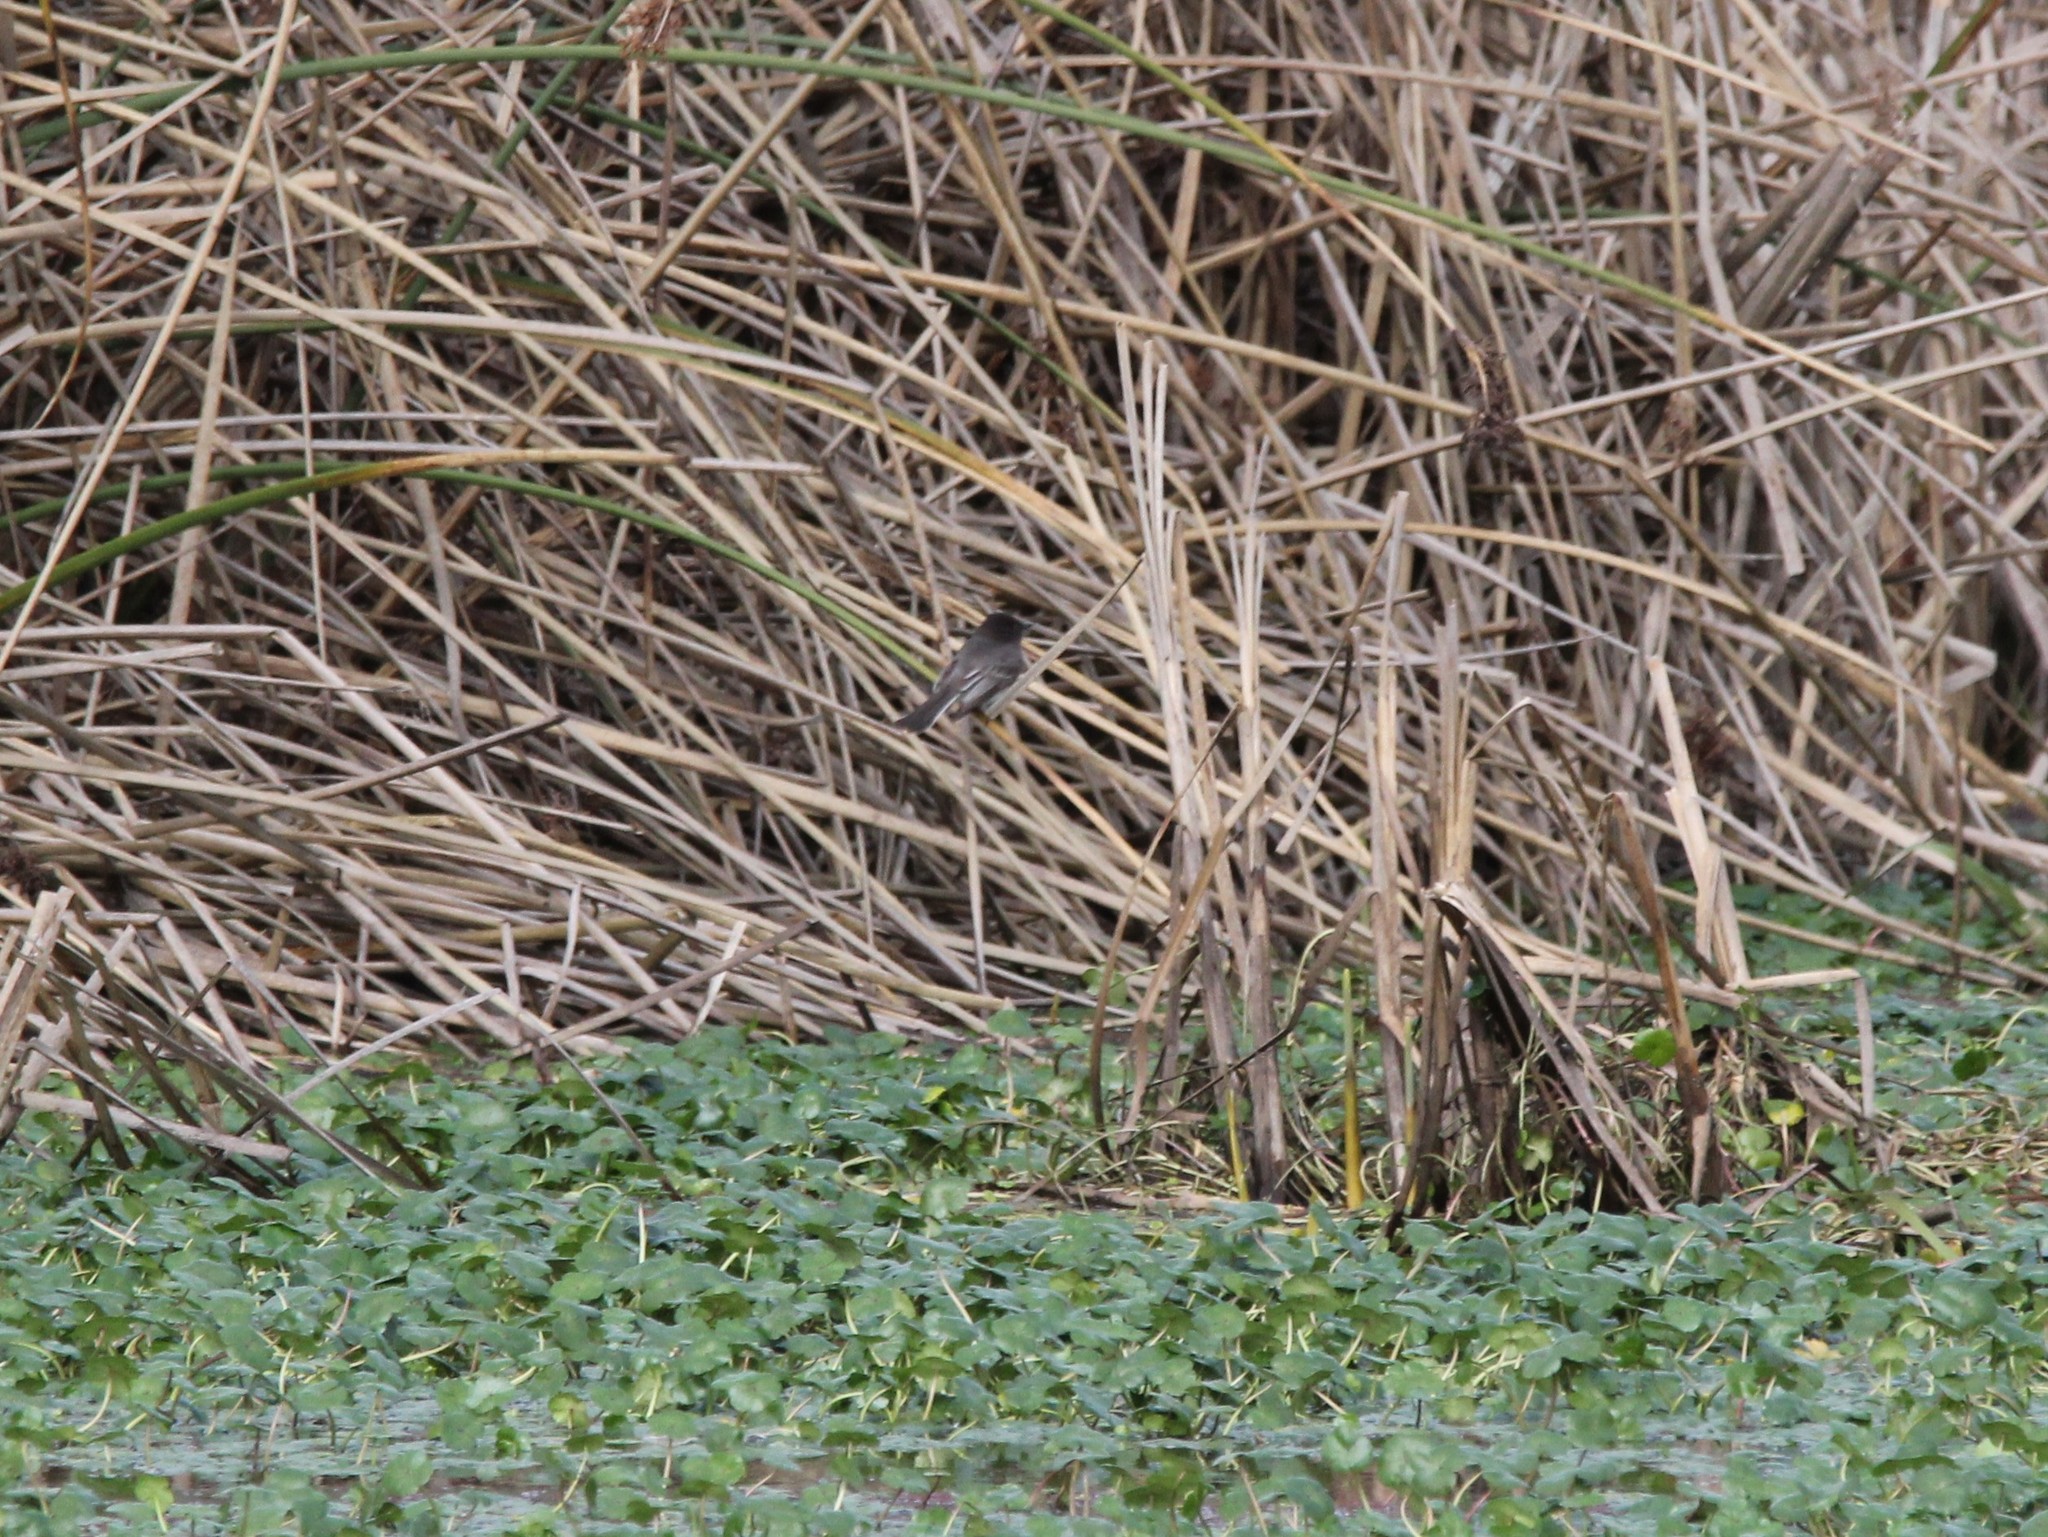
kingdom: Animalia
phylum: Chordata
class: Aves
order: Passeriformes
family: Tyrannidae
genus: Sayornis
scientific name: Sayornis nigricans
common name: Black phoebe
